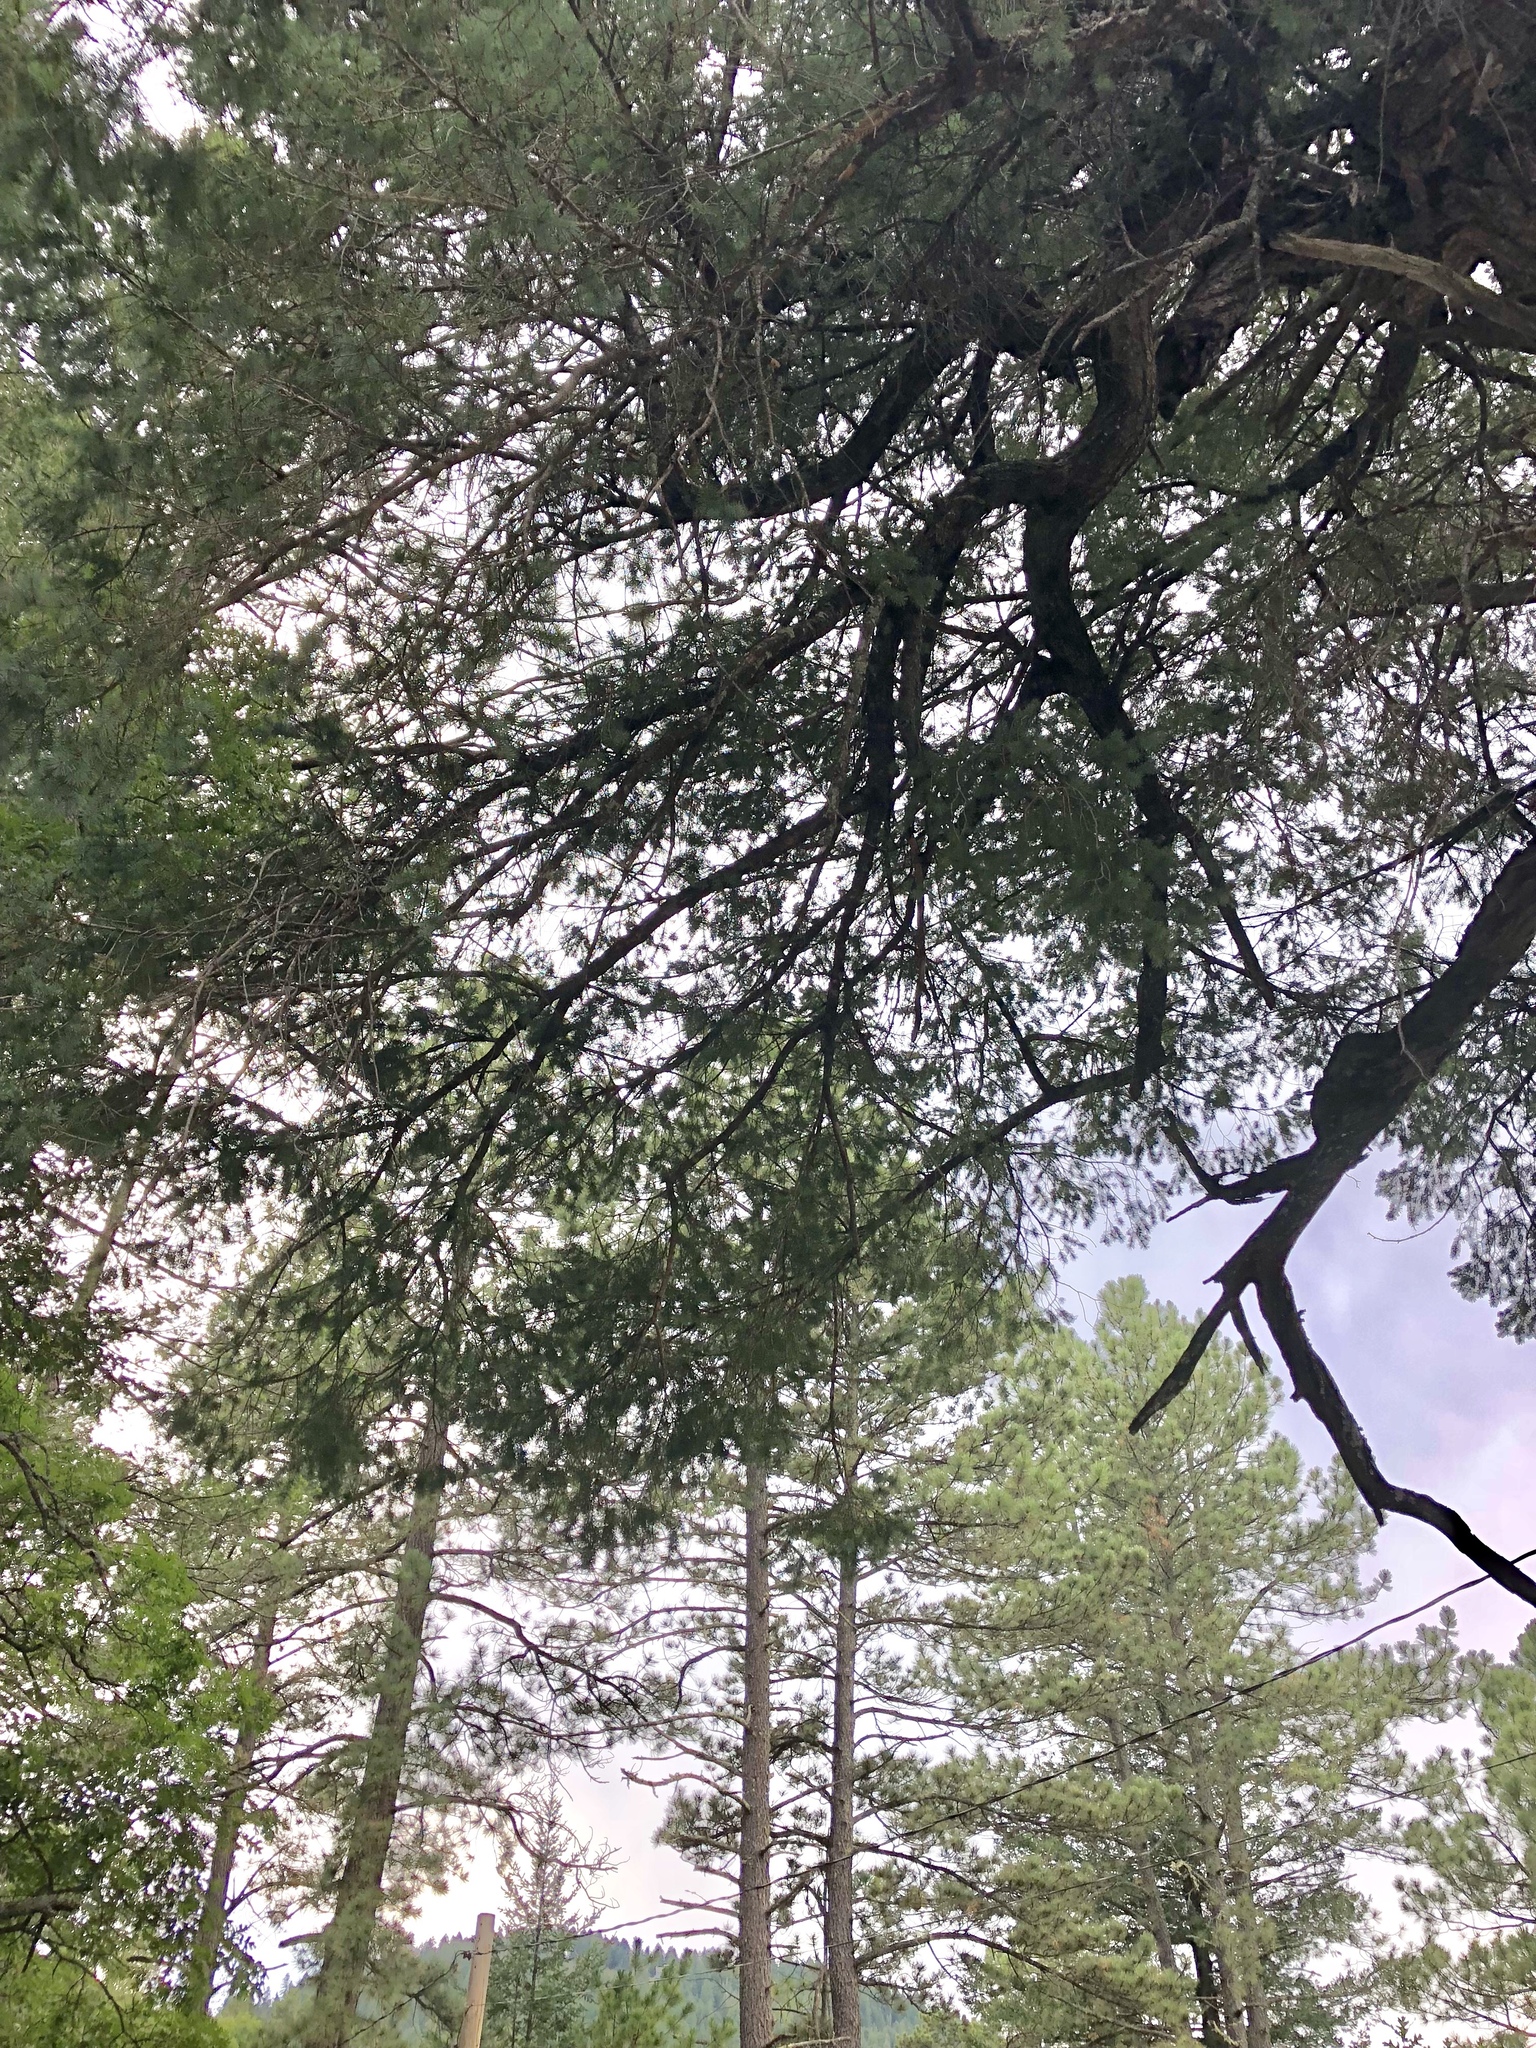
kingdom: Plantae
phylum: Tracheophyta
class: Pinopsida
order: Pinales
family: Pinaceae
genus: Pseudotsuga
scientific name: Pseudotsuga menziesii
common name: Douglas fir
